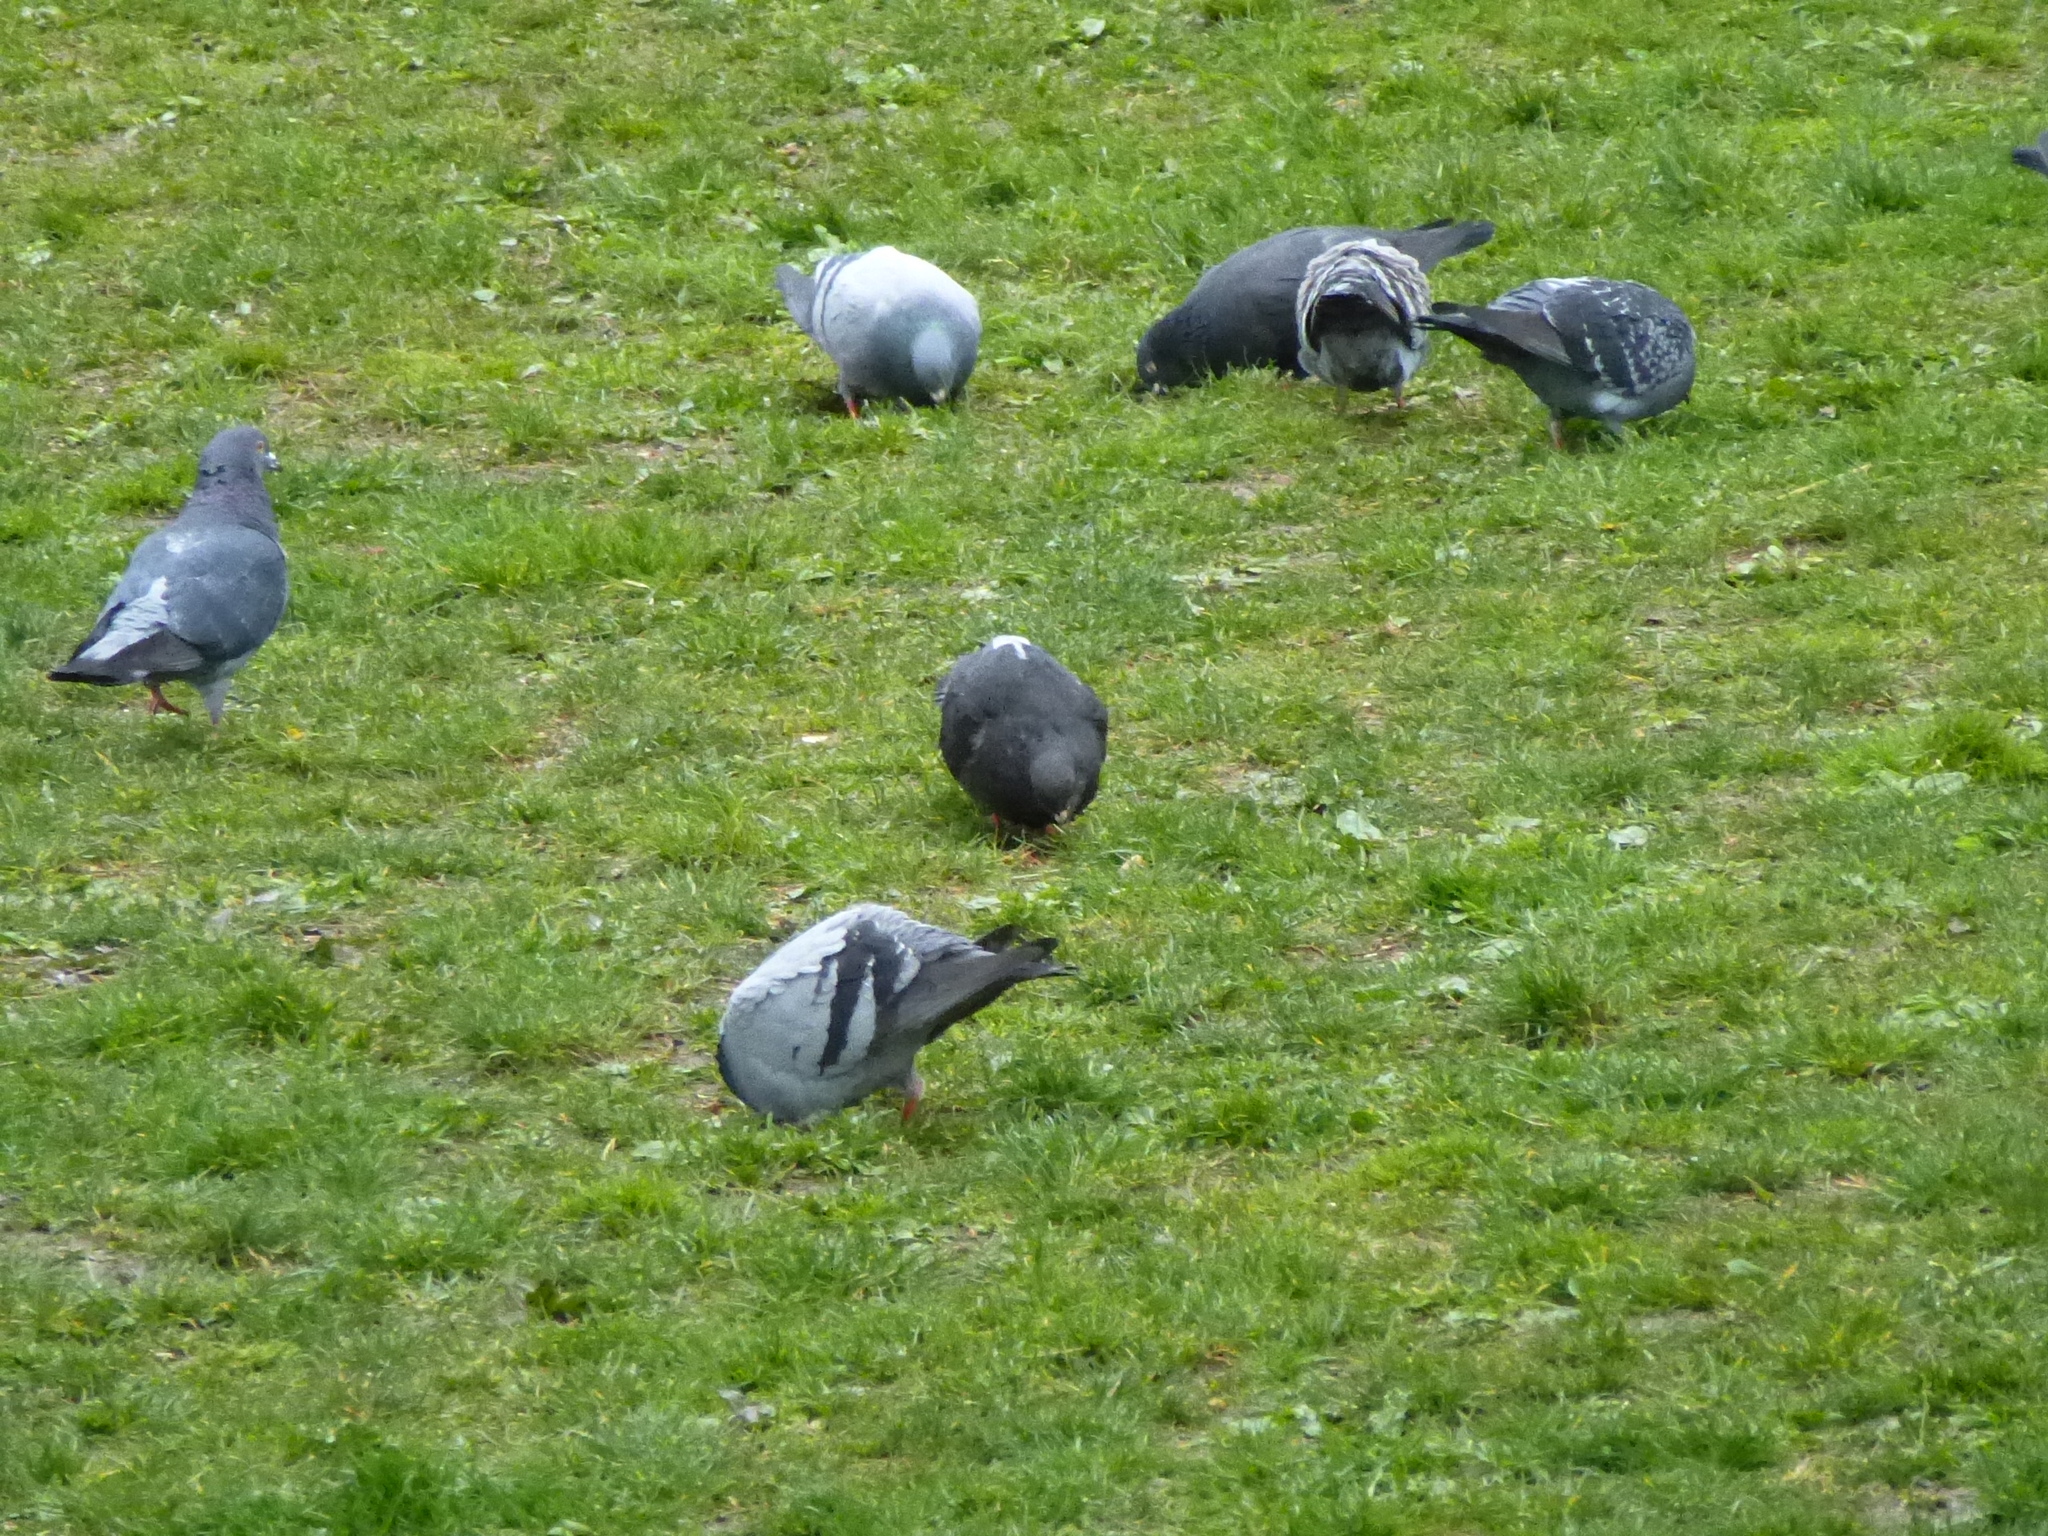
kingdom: Animalia
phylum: Chordata
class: Aves
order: Columbiformes
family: Columbidae
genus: Columba
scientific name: Columba livia
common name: Rock pigeon
